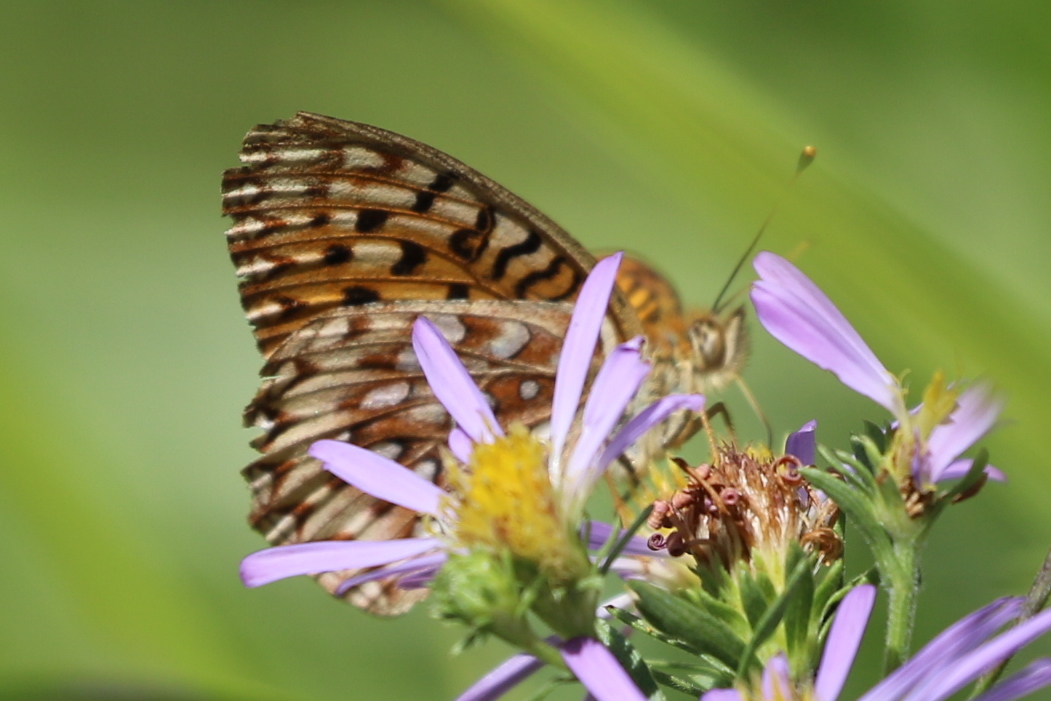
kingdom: Animalia
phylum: Arthropoda
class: Insecta
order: Lepidoptera
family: Nymphalidae
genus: Speyeria
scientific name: Speyeria mormonia
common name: Mormon fritillary
